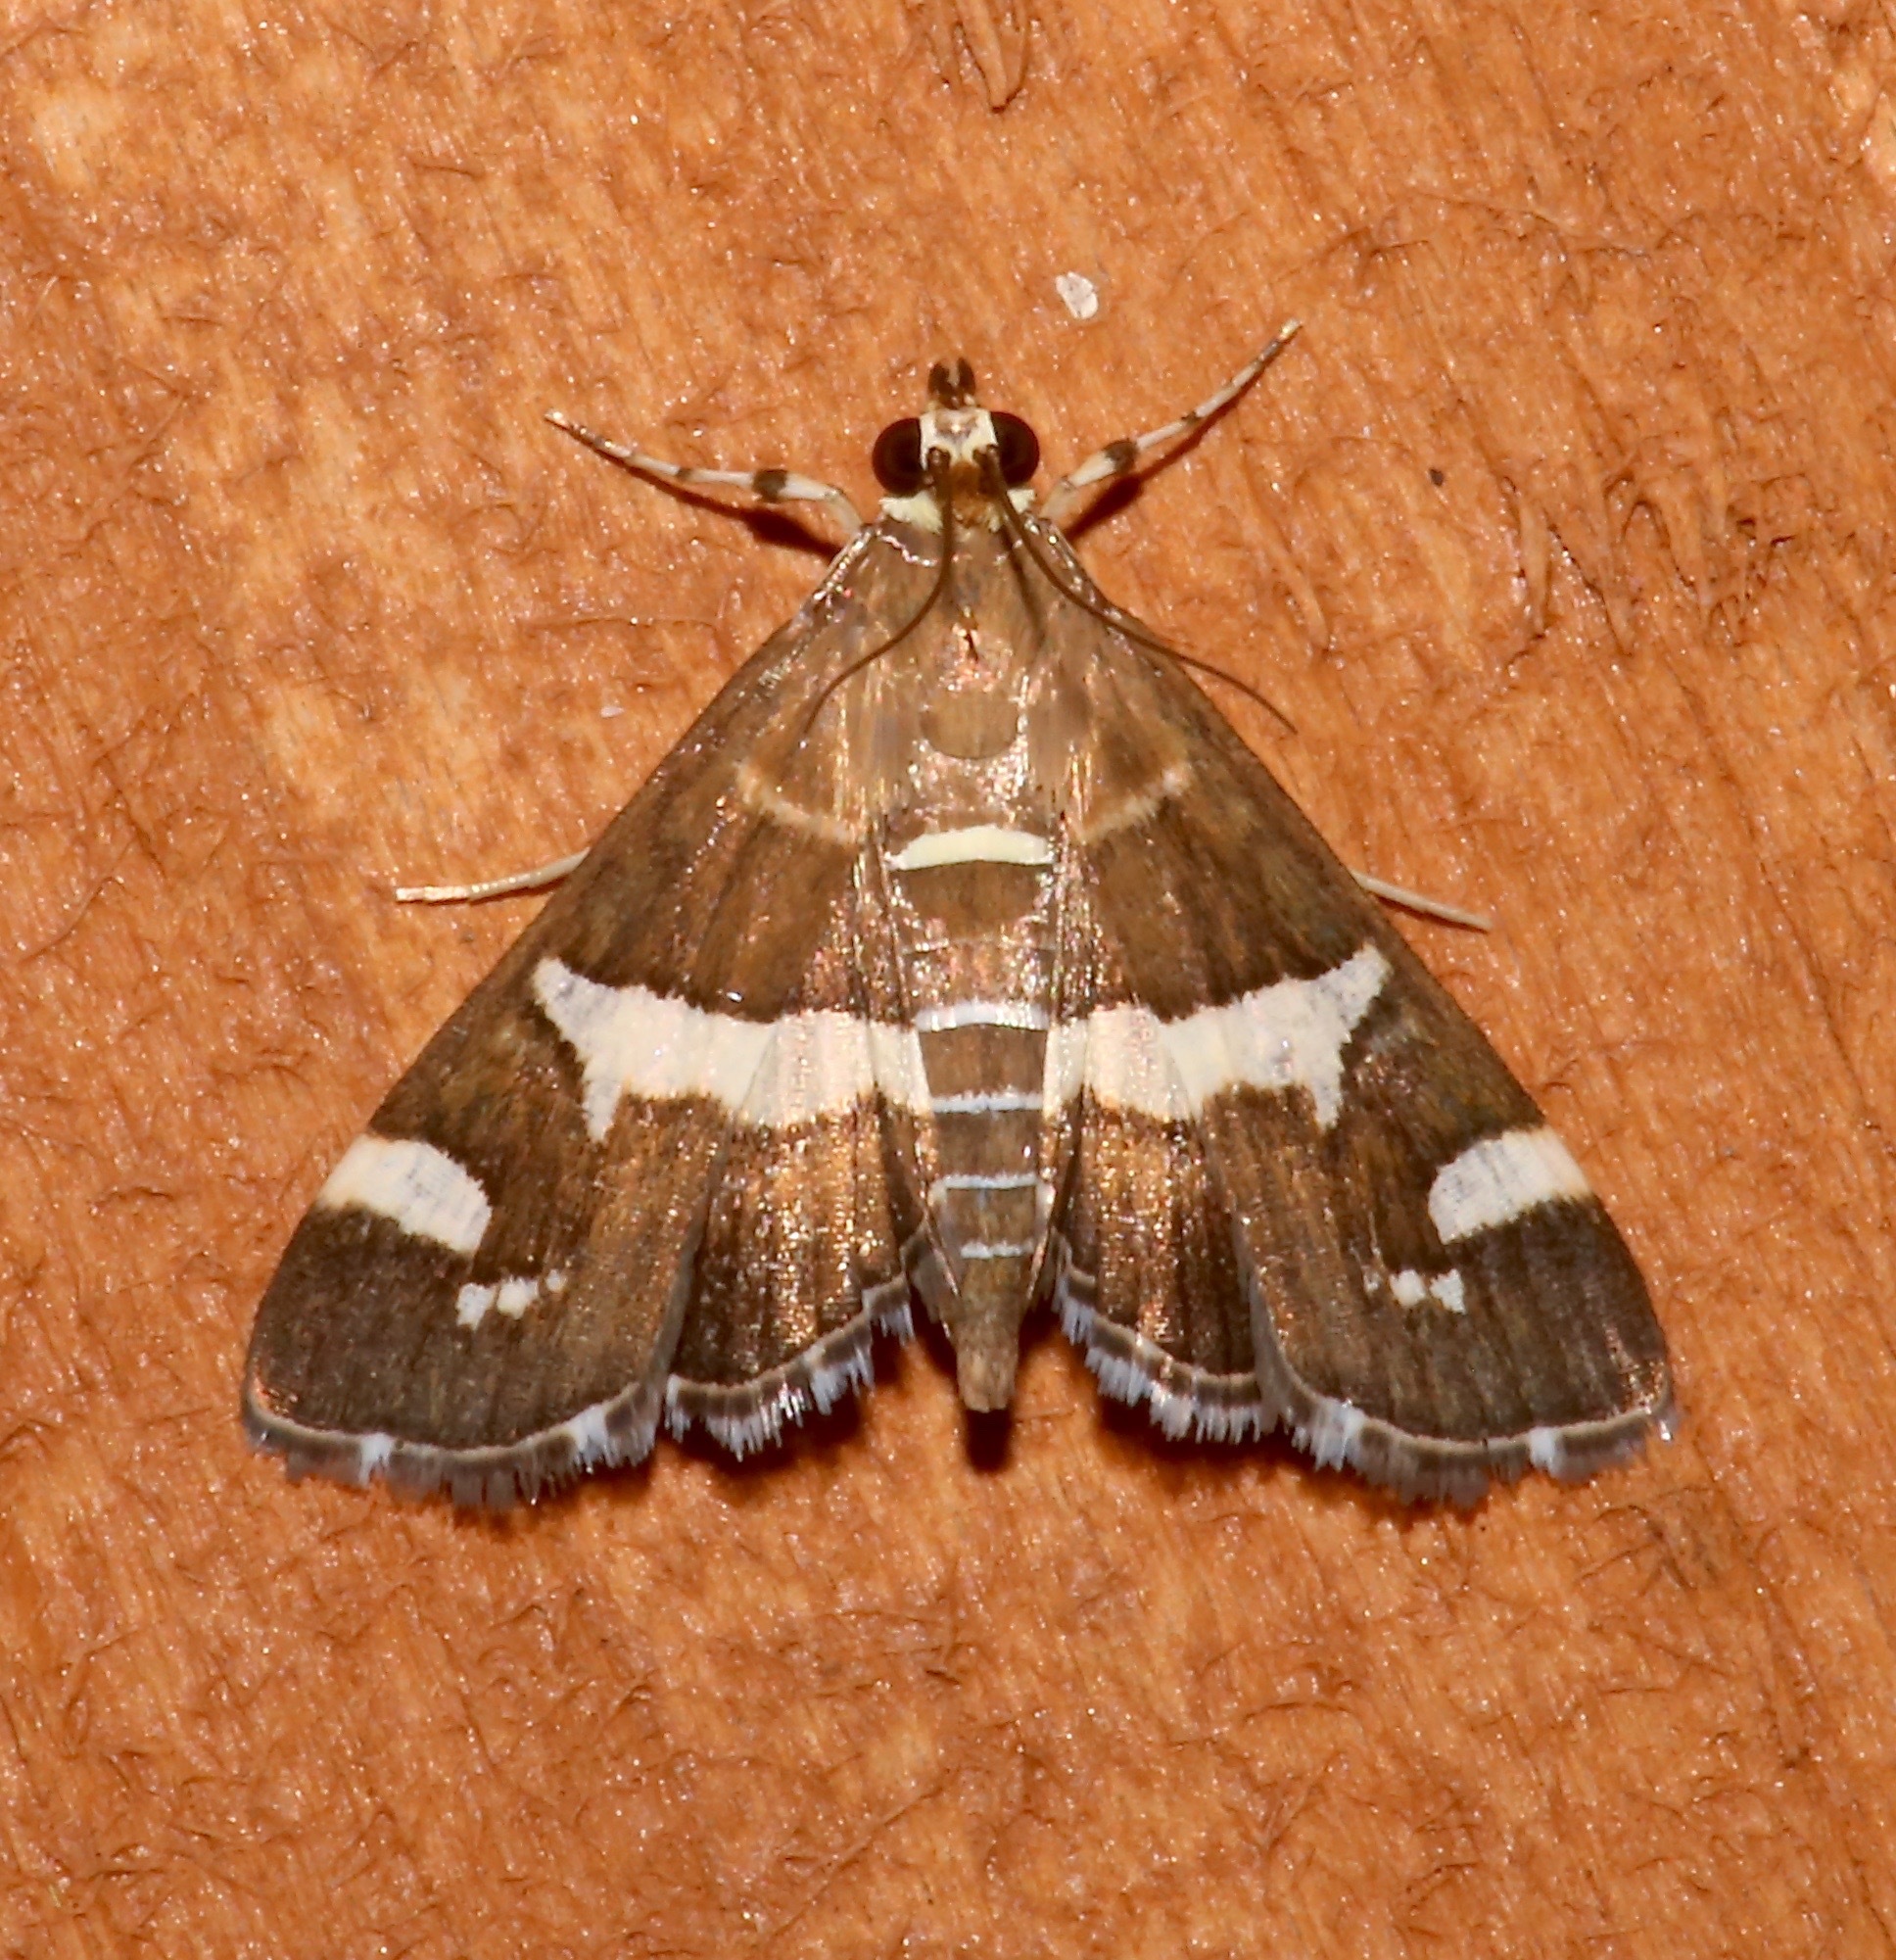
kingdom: Animalia
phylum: Arthropoda
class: Insecta
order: Lepidoptera
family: Crambidae
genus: Spoladea
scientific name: Spoladea recurvalis
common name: Beet webworm moth
